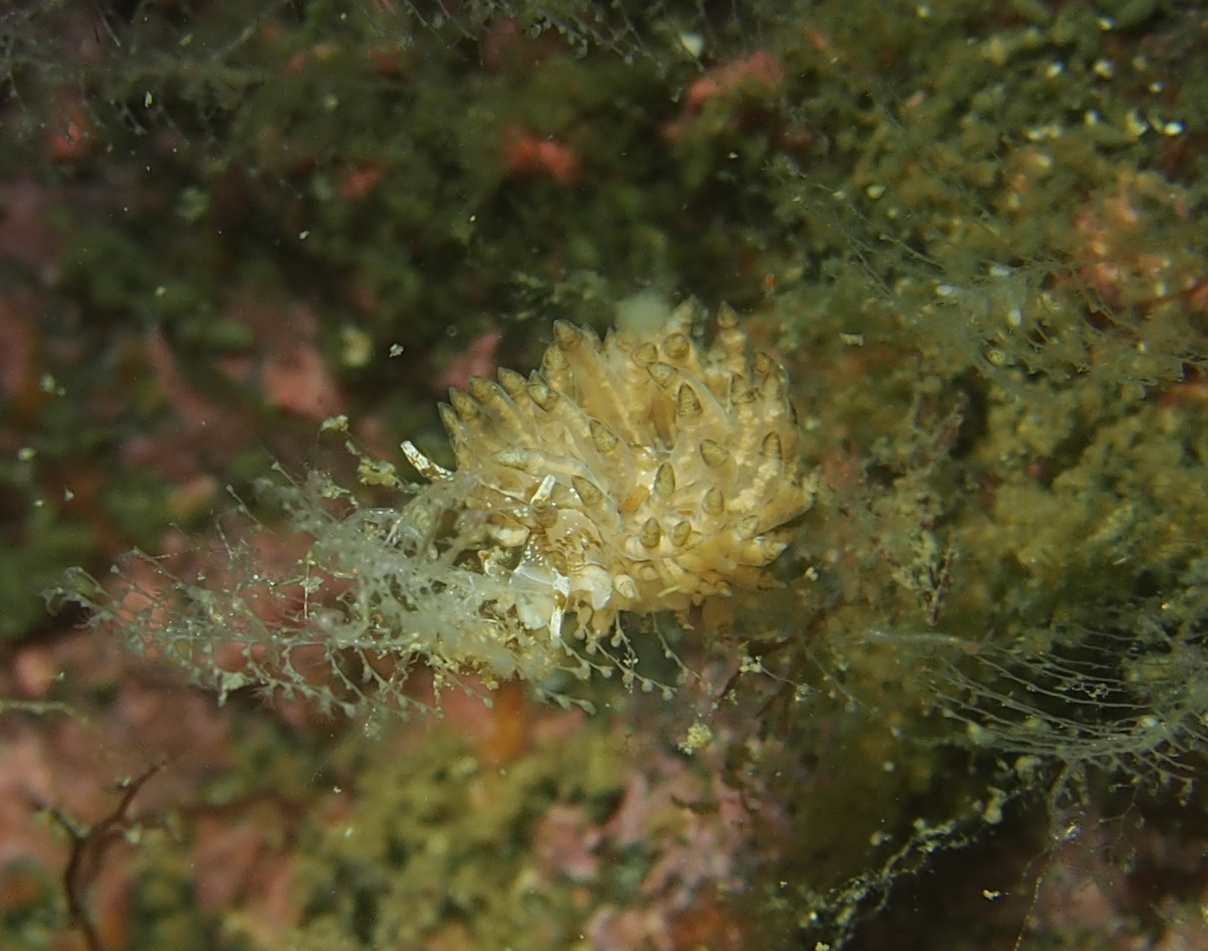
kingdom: Animalia
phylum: Mollusca
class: Gastropoda
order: Nudibranchia
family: Eubranchidae
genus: Eubranchus
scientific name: Eubranchus vittatus
